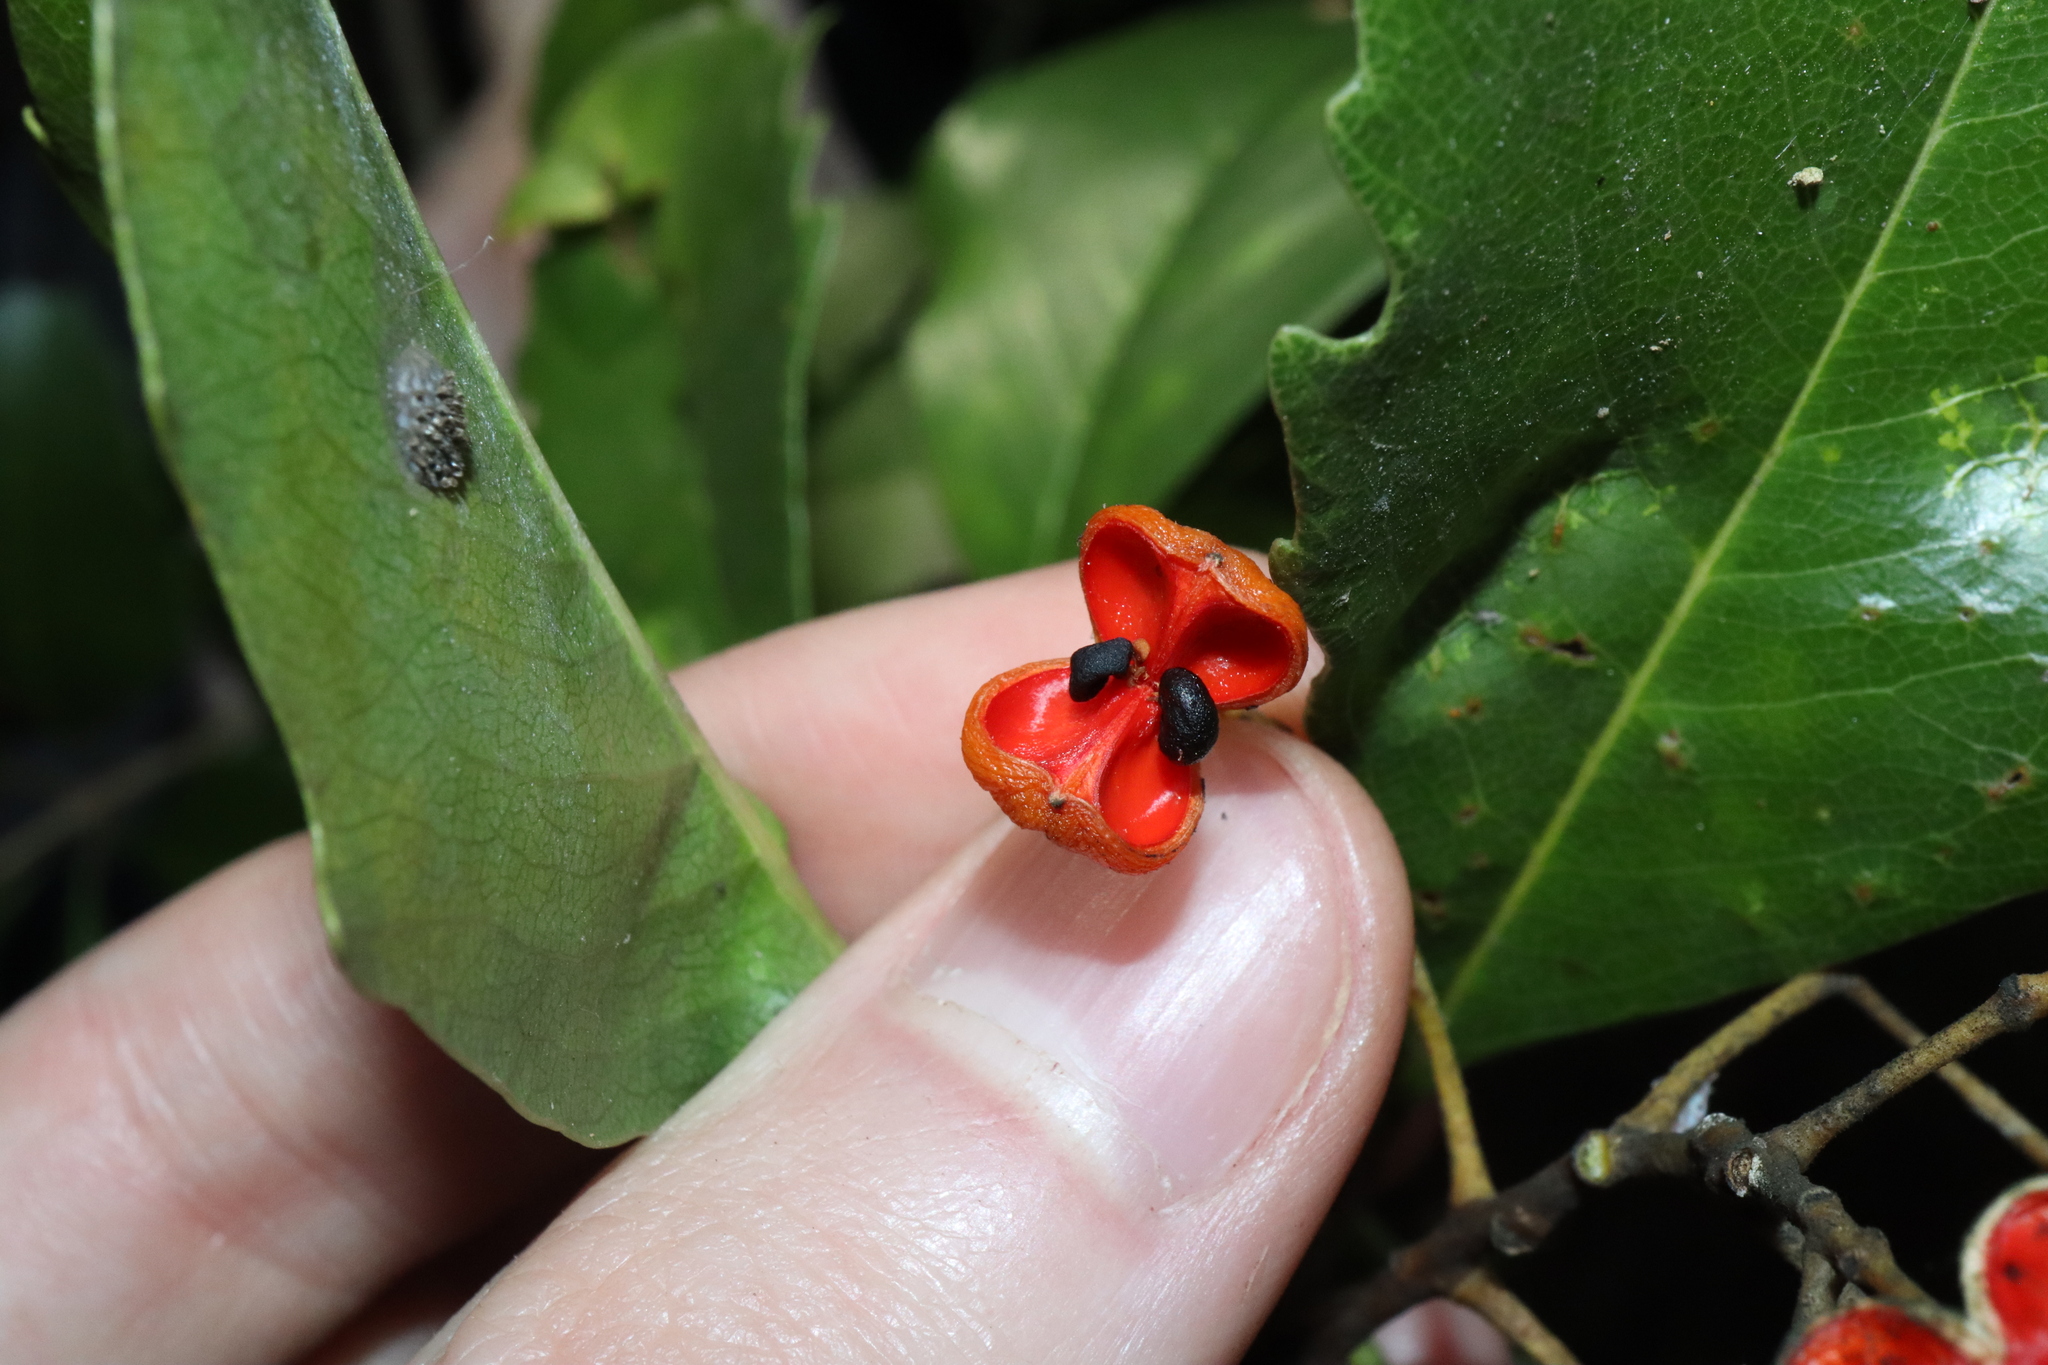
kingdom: Plantae
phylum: Tracheophyta
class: Magnoliopsida
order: Apiales
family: Pittosporaceae
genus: Auranticarpa
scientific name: Auranticarpa rhombifolia
